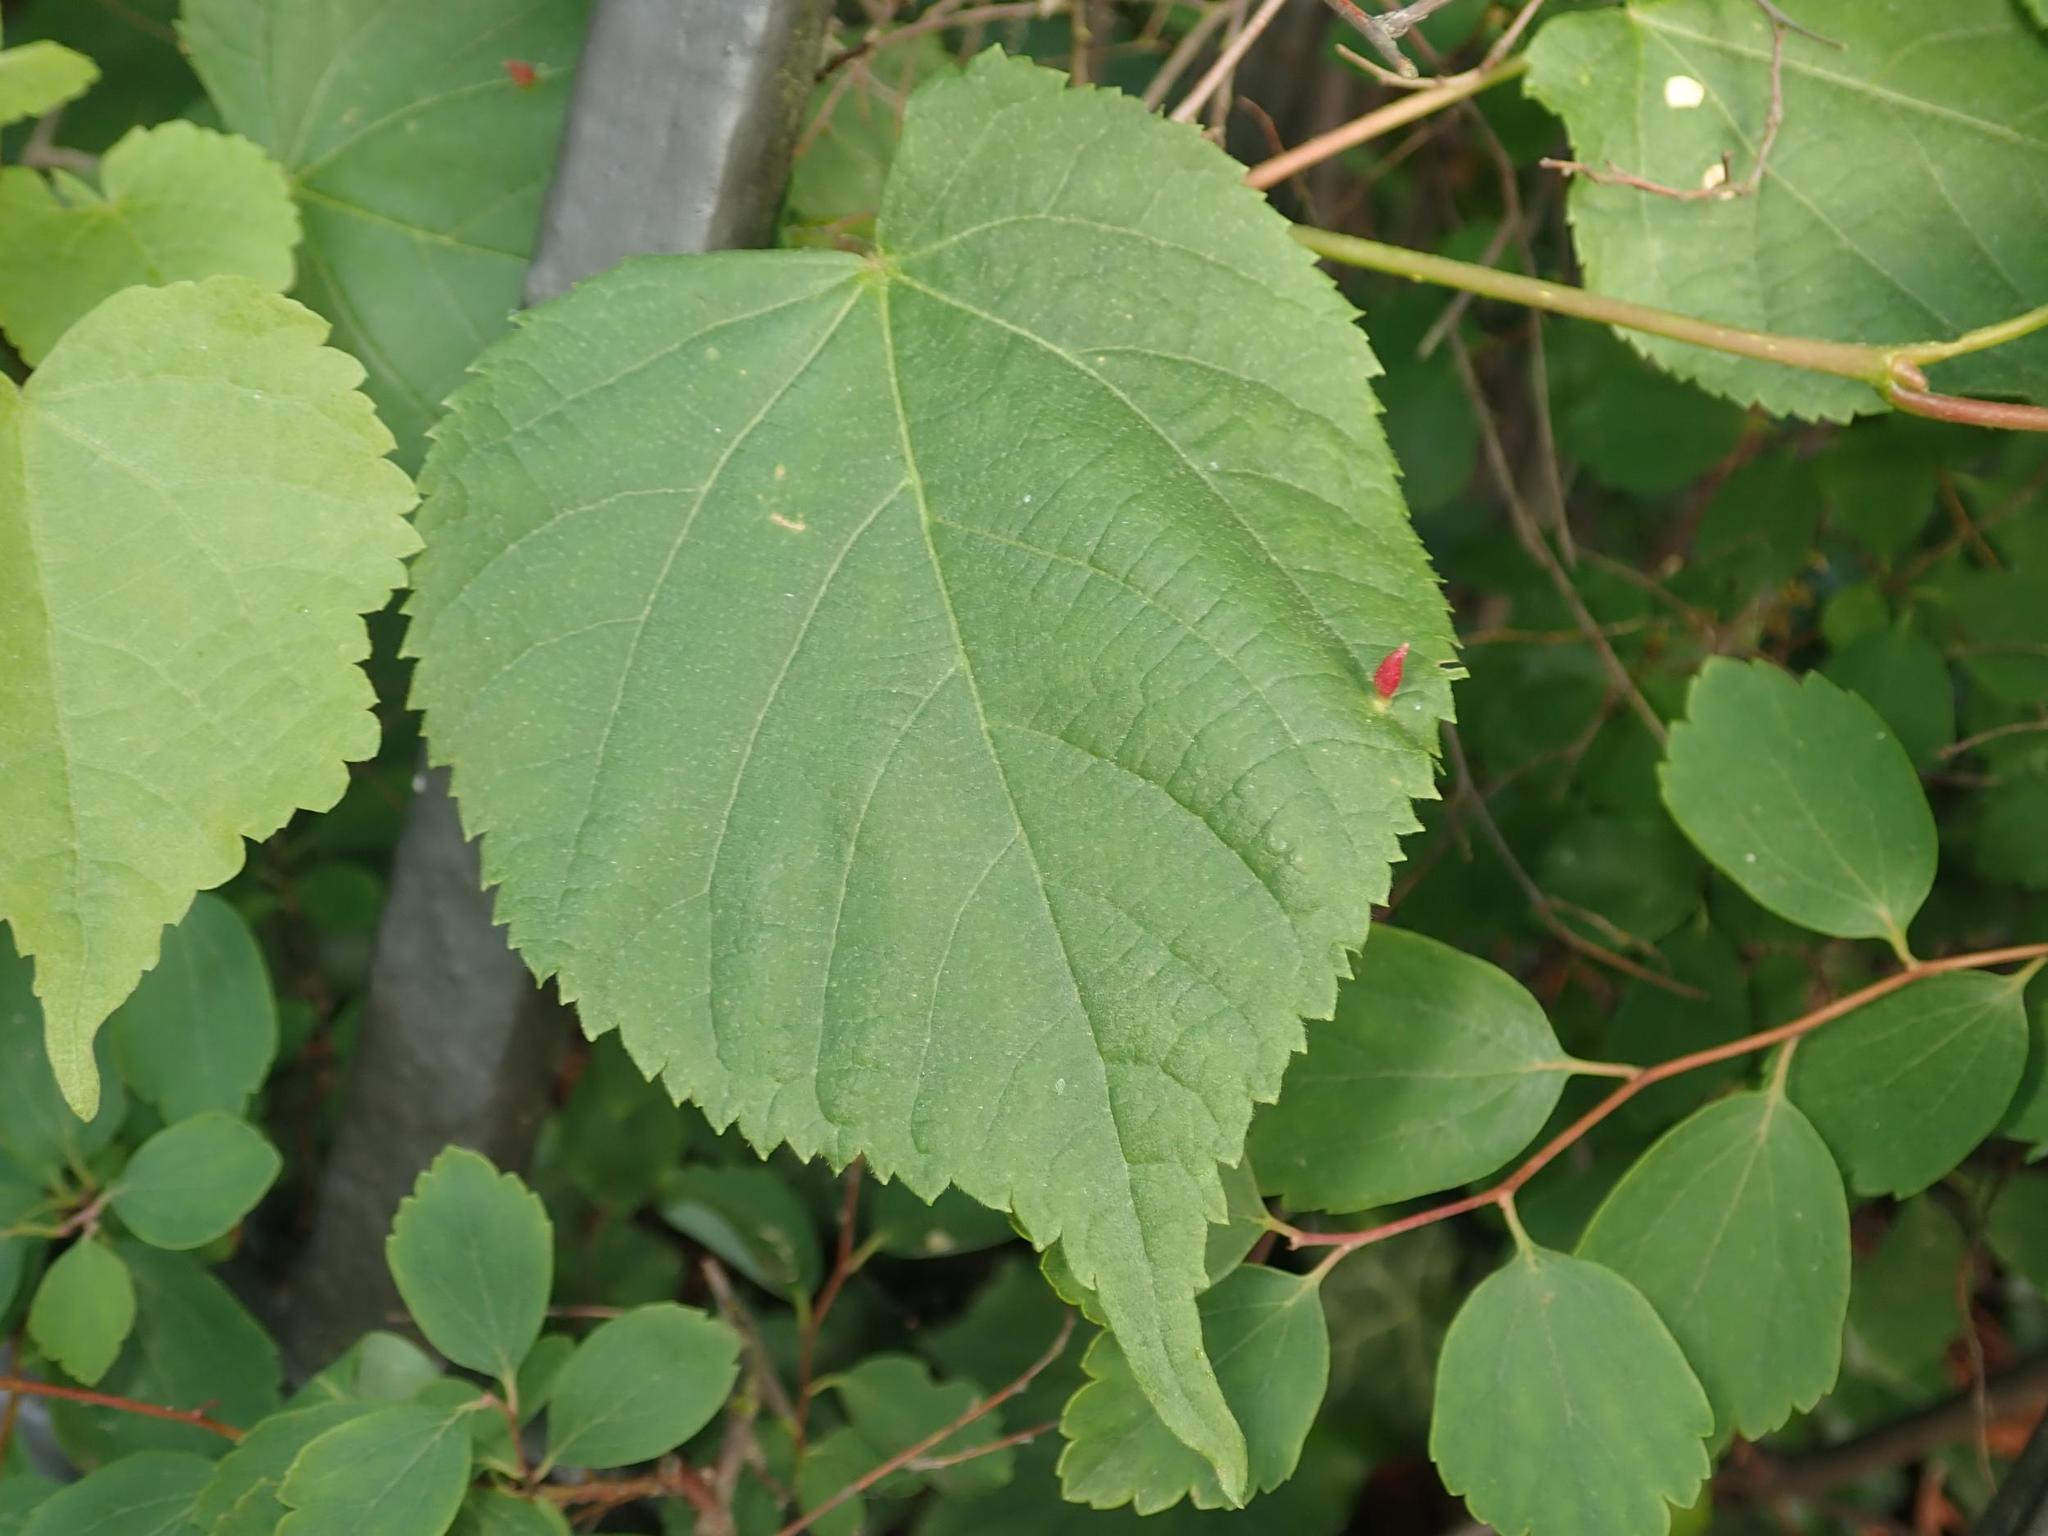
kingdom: Plantae
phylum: Tracheophyta
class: Magnoliopsida
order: Malvales
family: Malvaceae
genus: Tilia
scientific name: Tilia cordata
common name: Small-leaved lime
